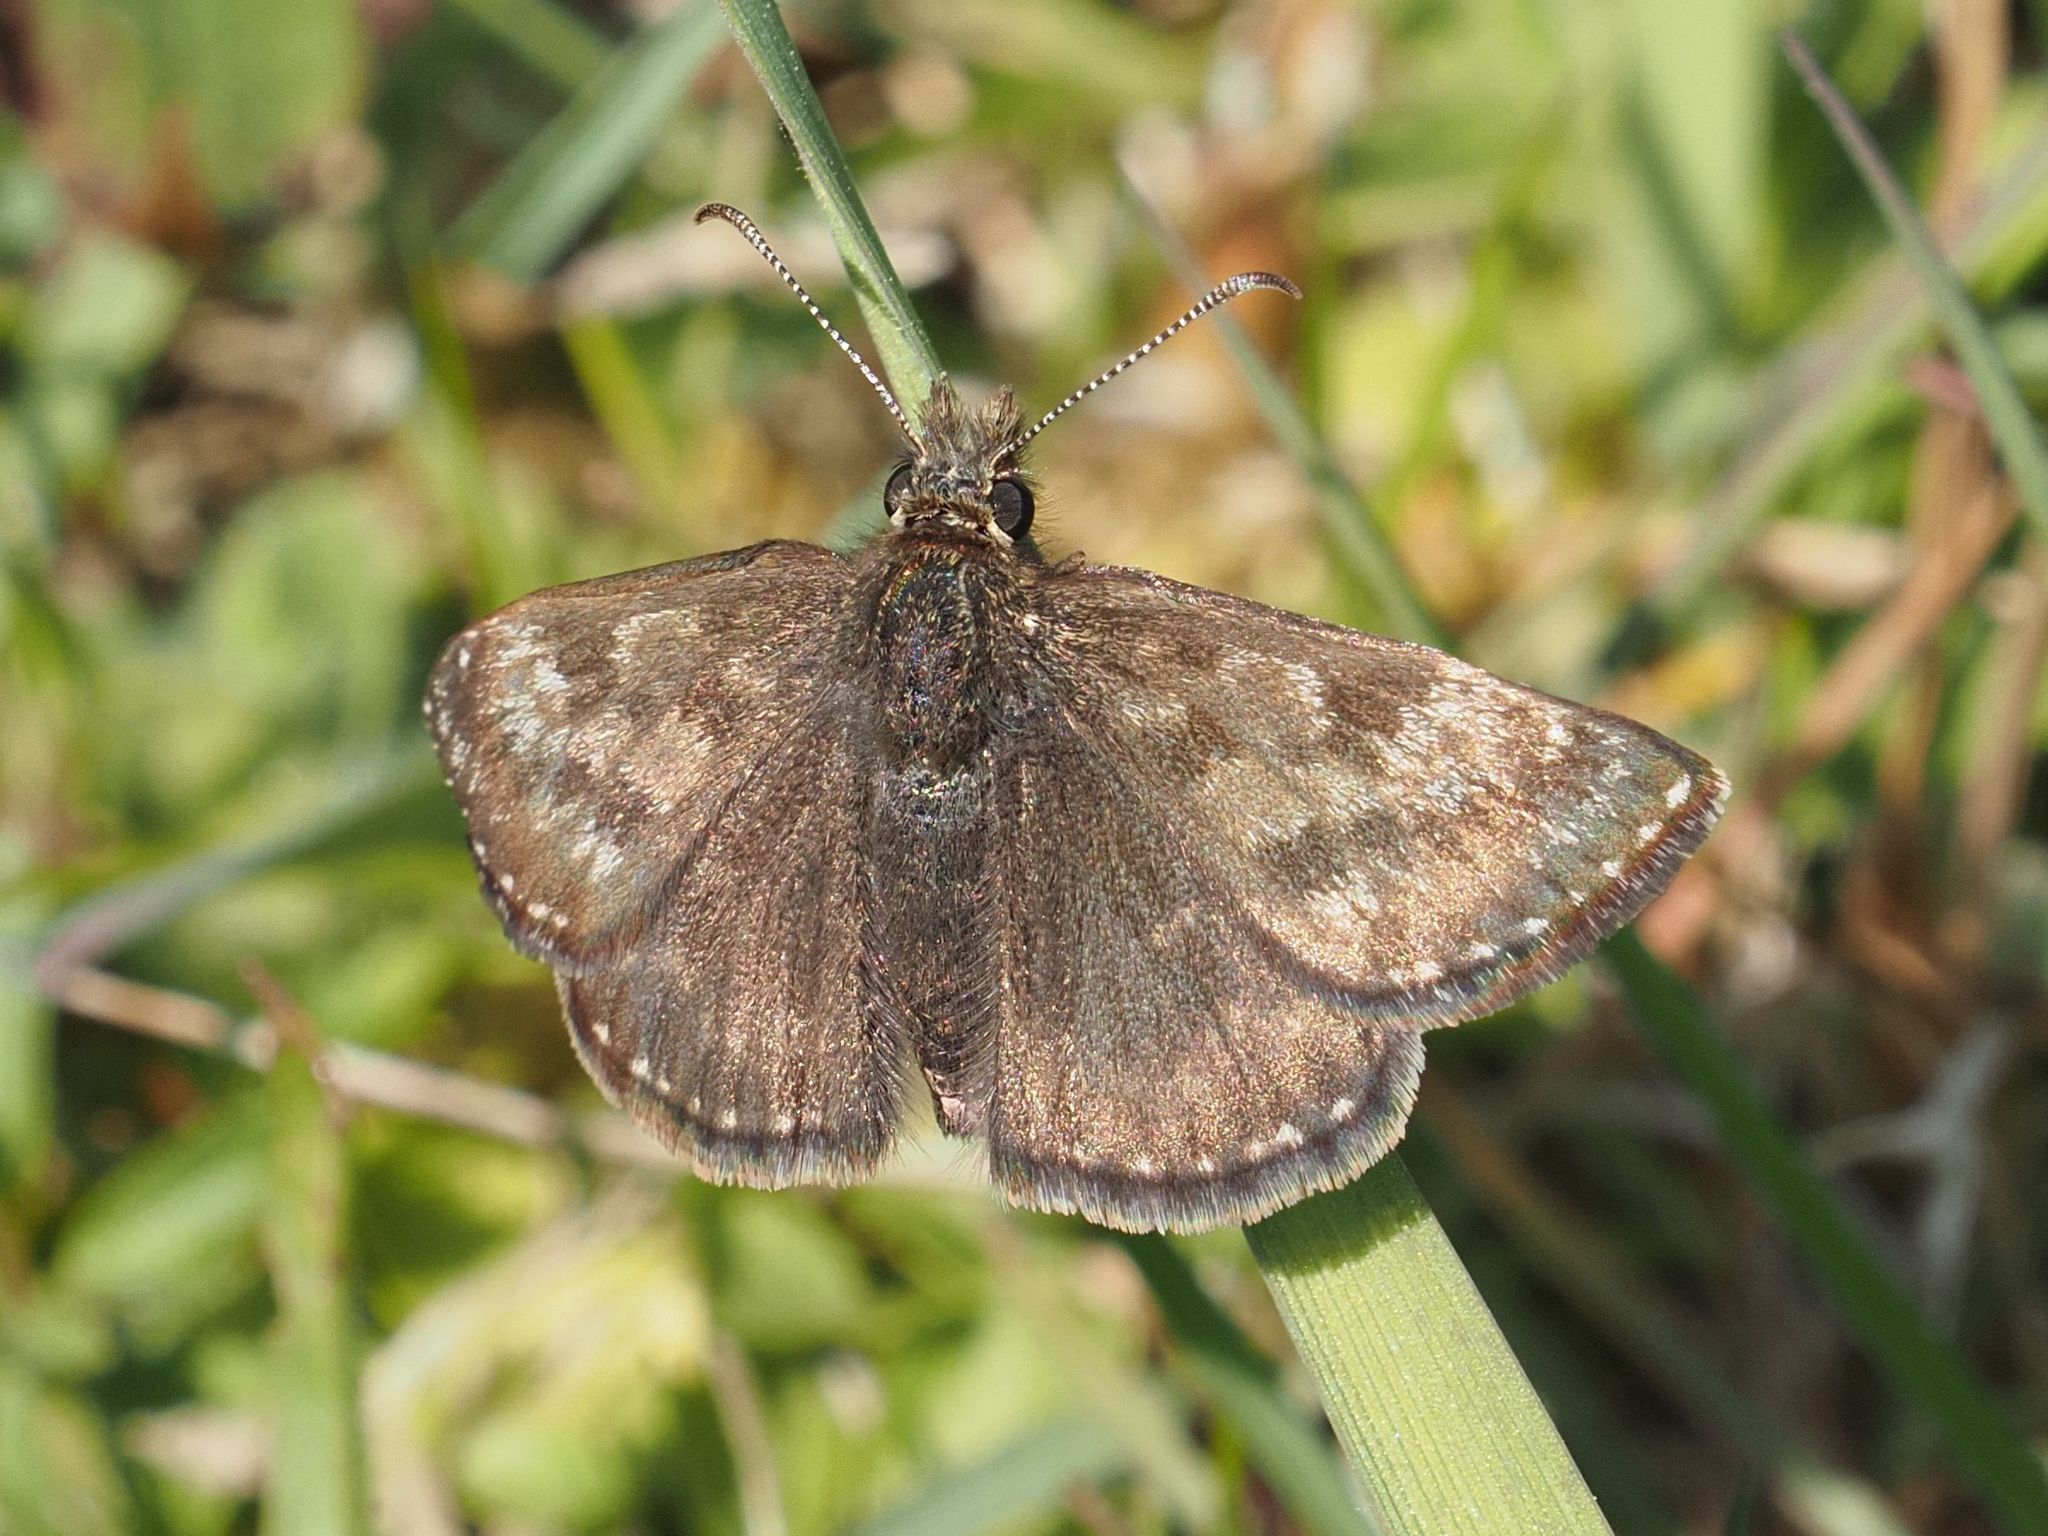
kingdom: Animalia
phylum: Arthropoda
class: Insecta
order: Lepidoptera
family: Hesperiidae
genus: Erynnis
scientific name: Erynnis tages
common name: Dingy skipper
